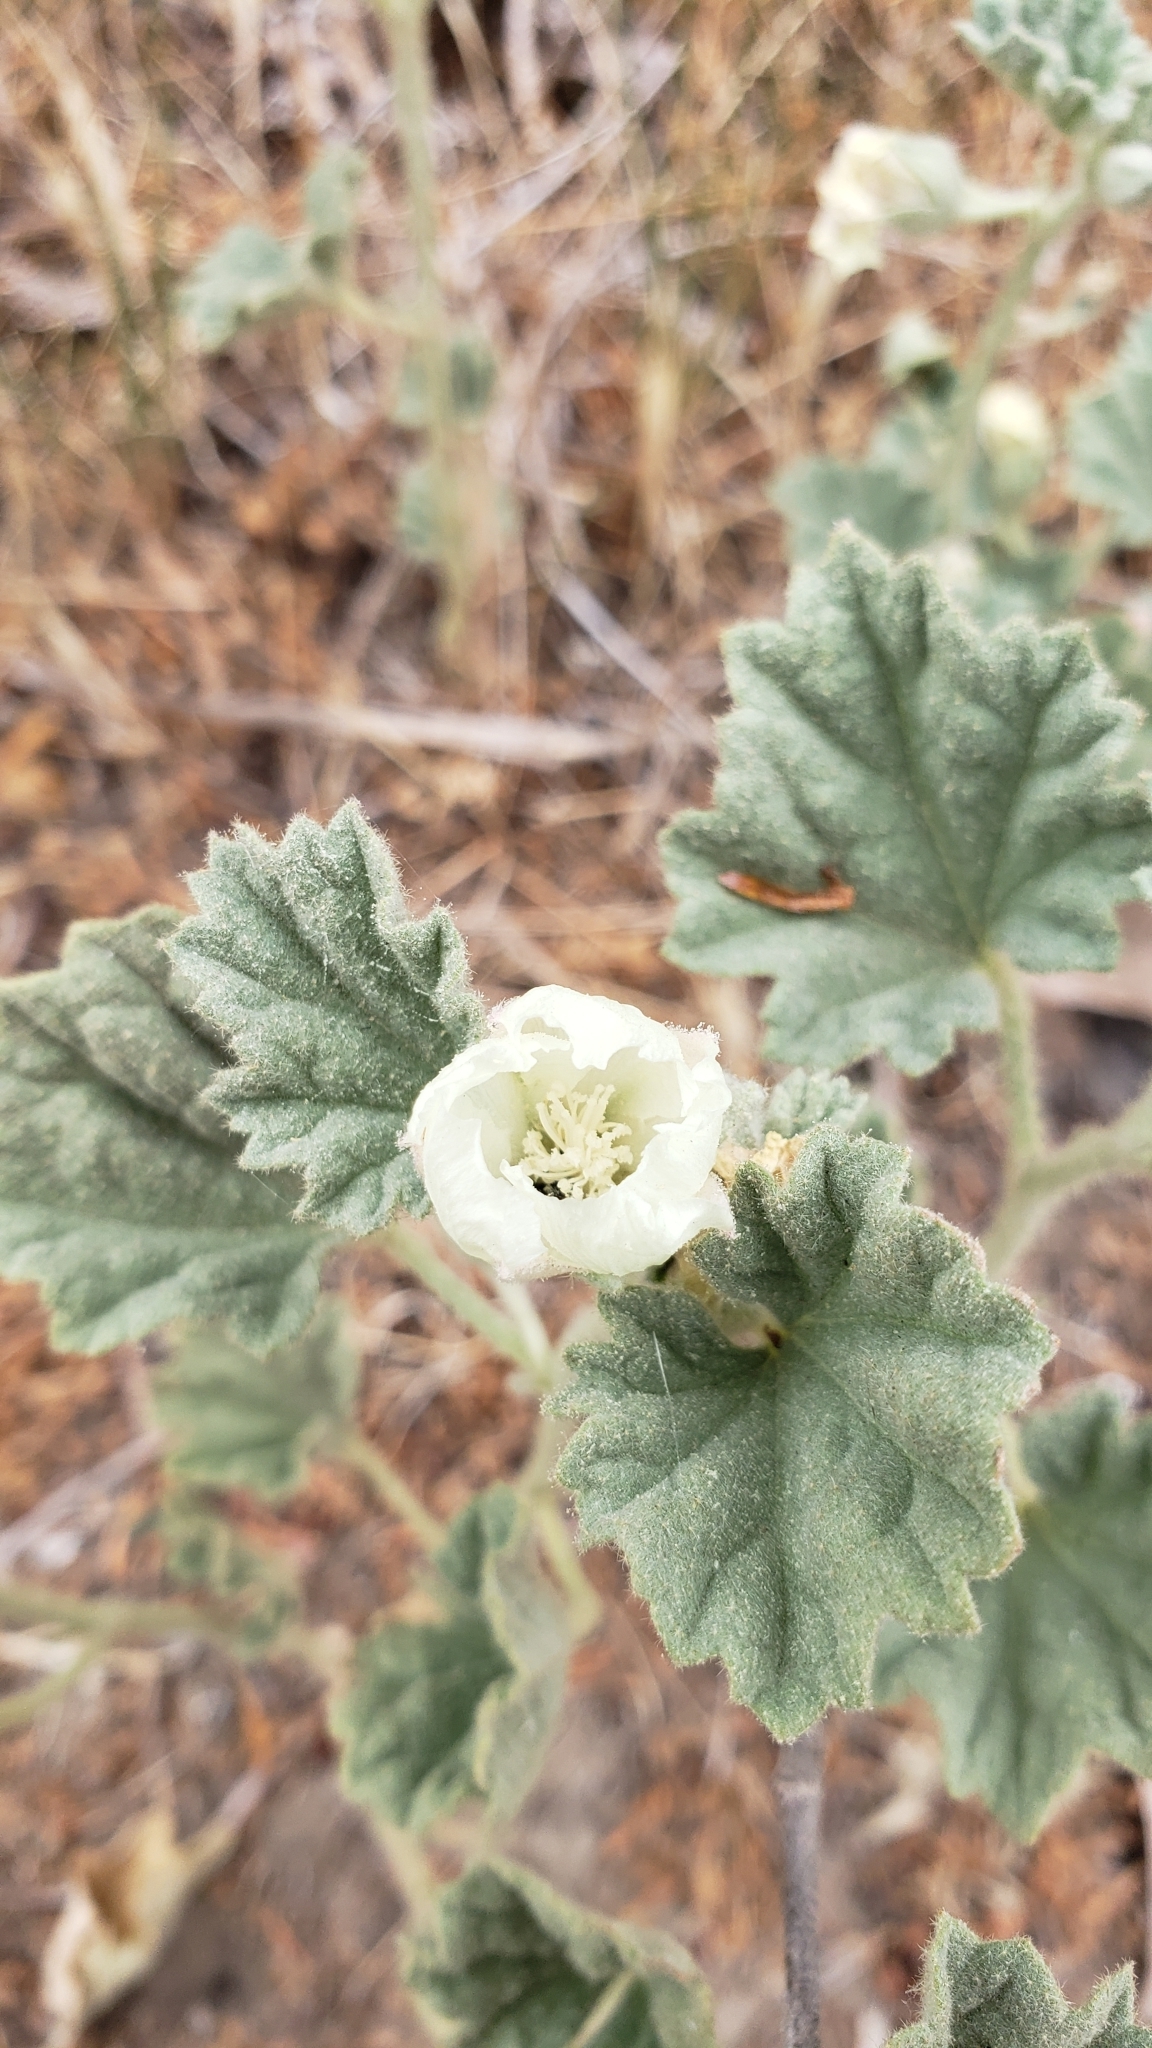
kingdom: Plantae
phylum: Tracheophyta
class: Magnoliopsida
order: Malvales
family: Malvaceae
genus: Malvella
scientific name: Malvella leprosa
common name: Alkali-mallow
